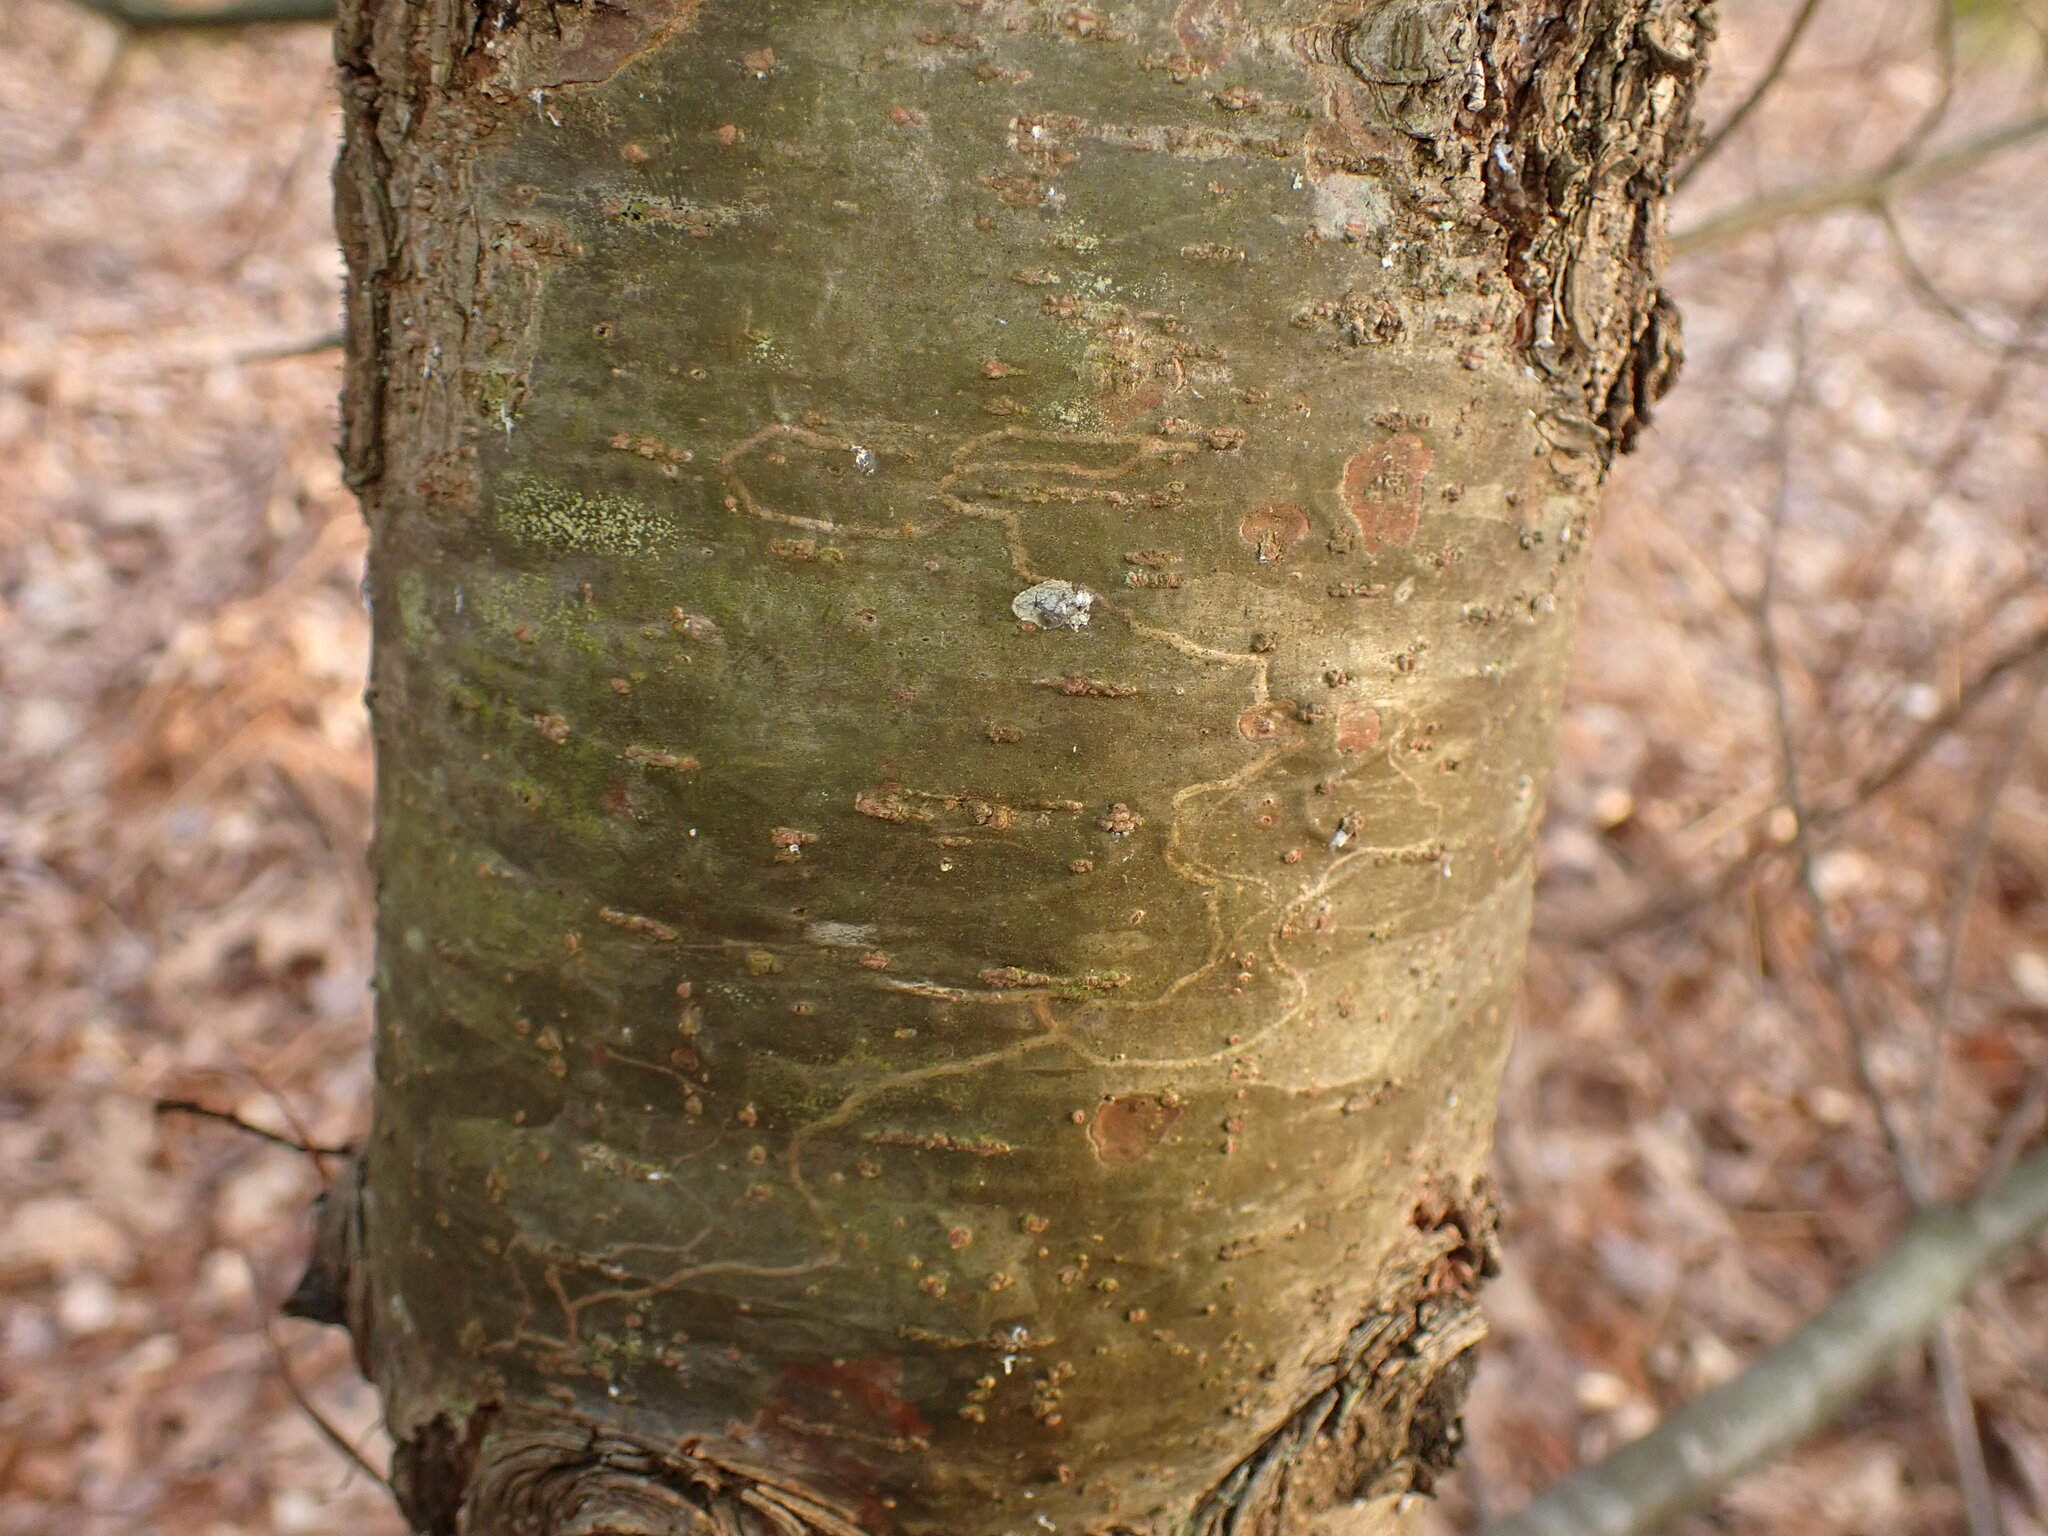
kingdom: Animalia
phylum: Arthropoda
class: Insecta
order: Lepidoptera
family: Gracillariidae
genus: Marmara
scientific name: Marmara fasciella
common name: White pine barkminer moth
